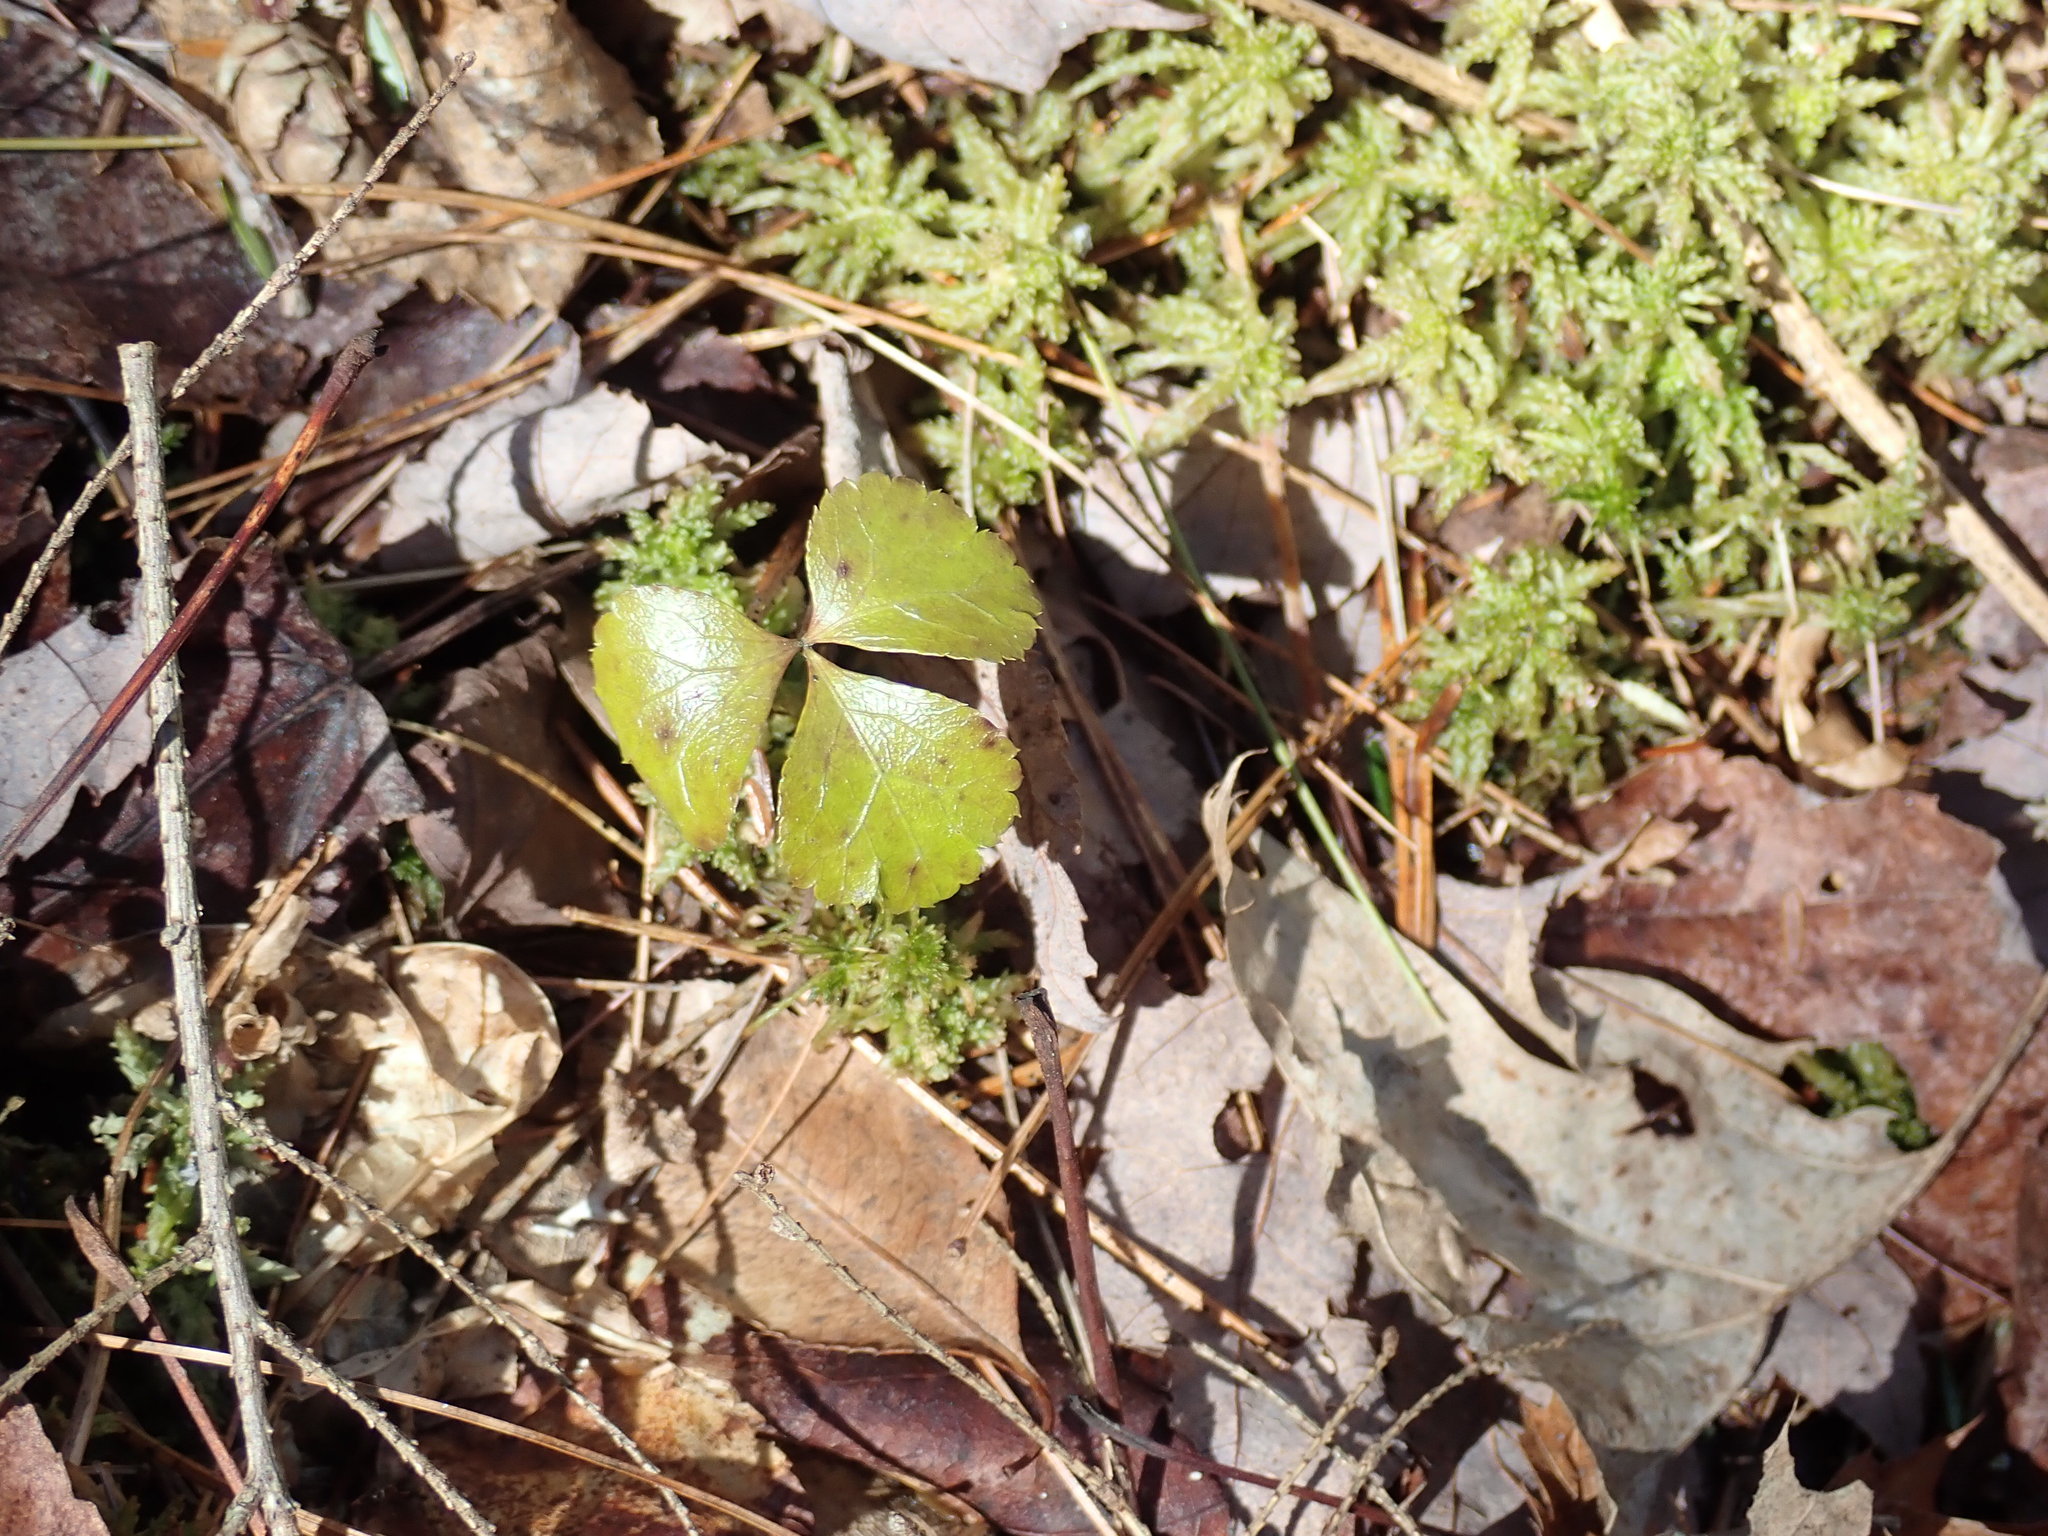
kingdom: Plantae
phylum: Tracheophyta
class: Magnoliopsida
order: Ranunculales
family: Ranunculaceae
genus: Coptis
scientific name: Coptis trifolia
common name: Canker-root
